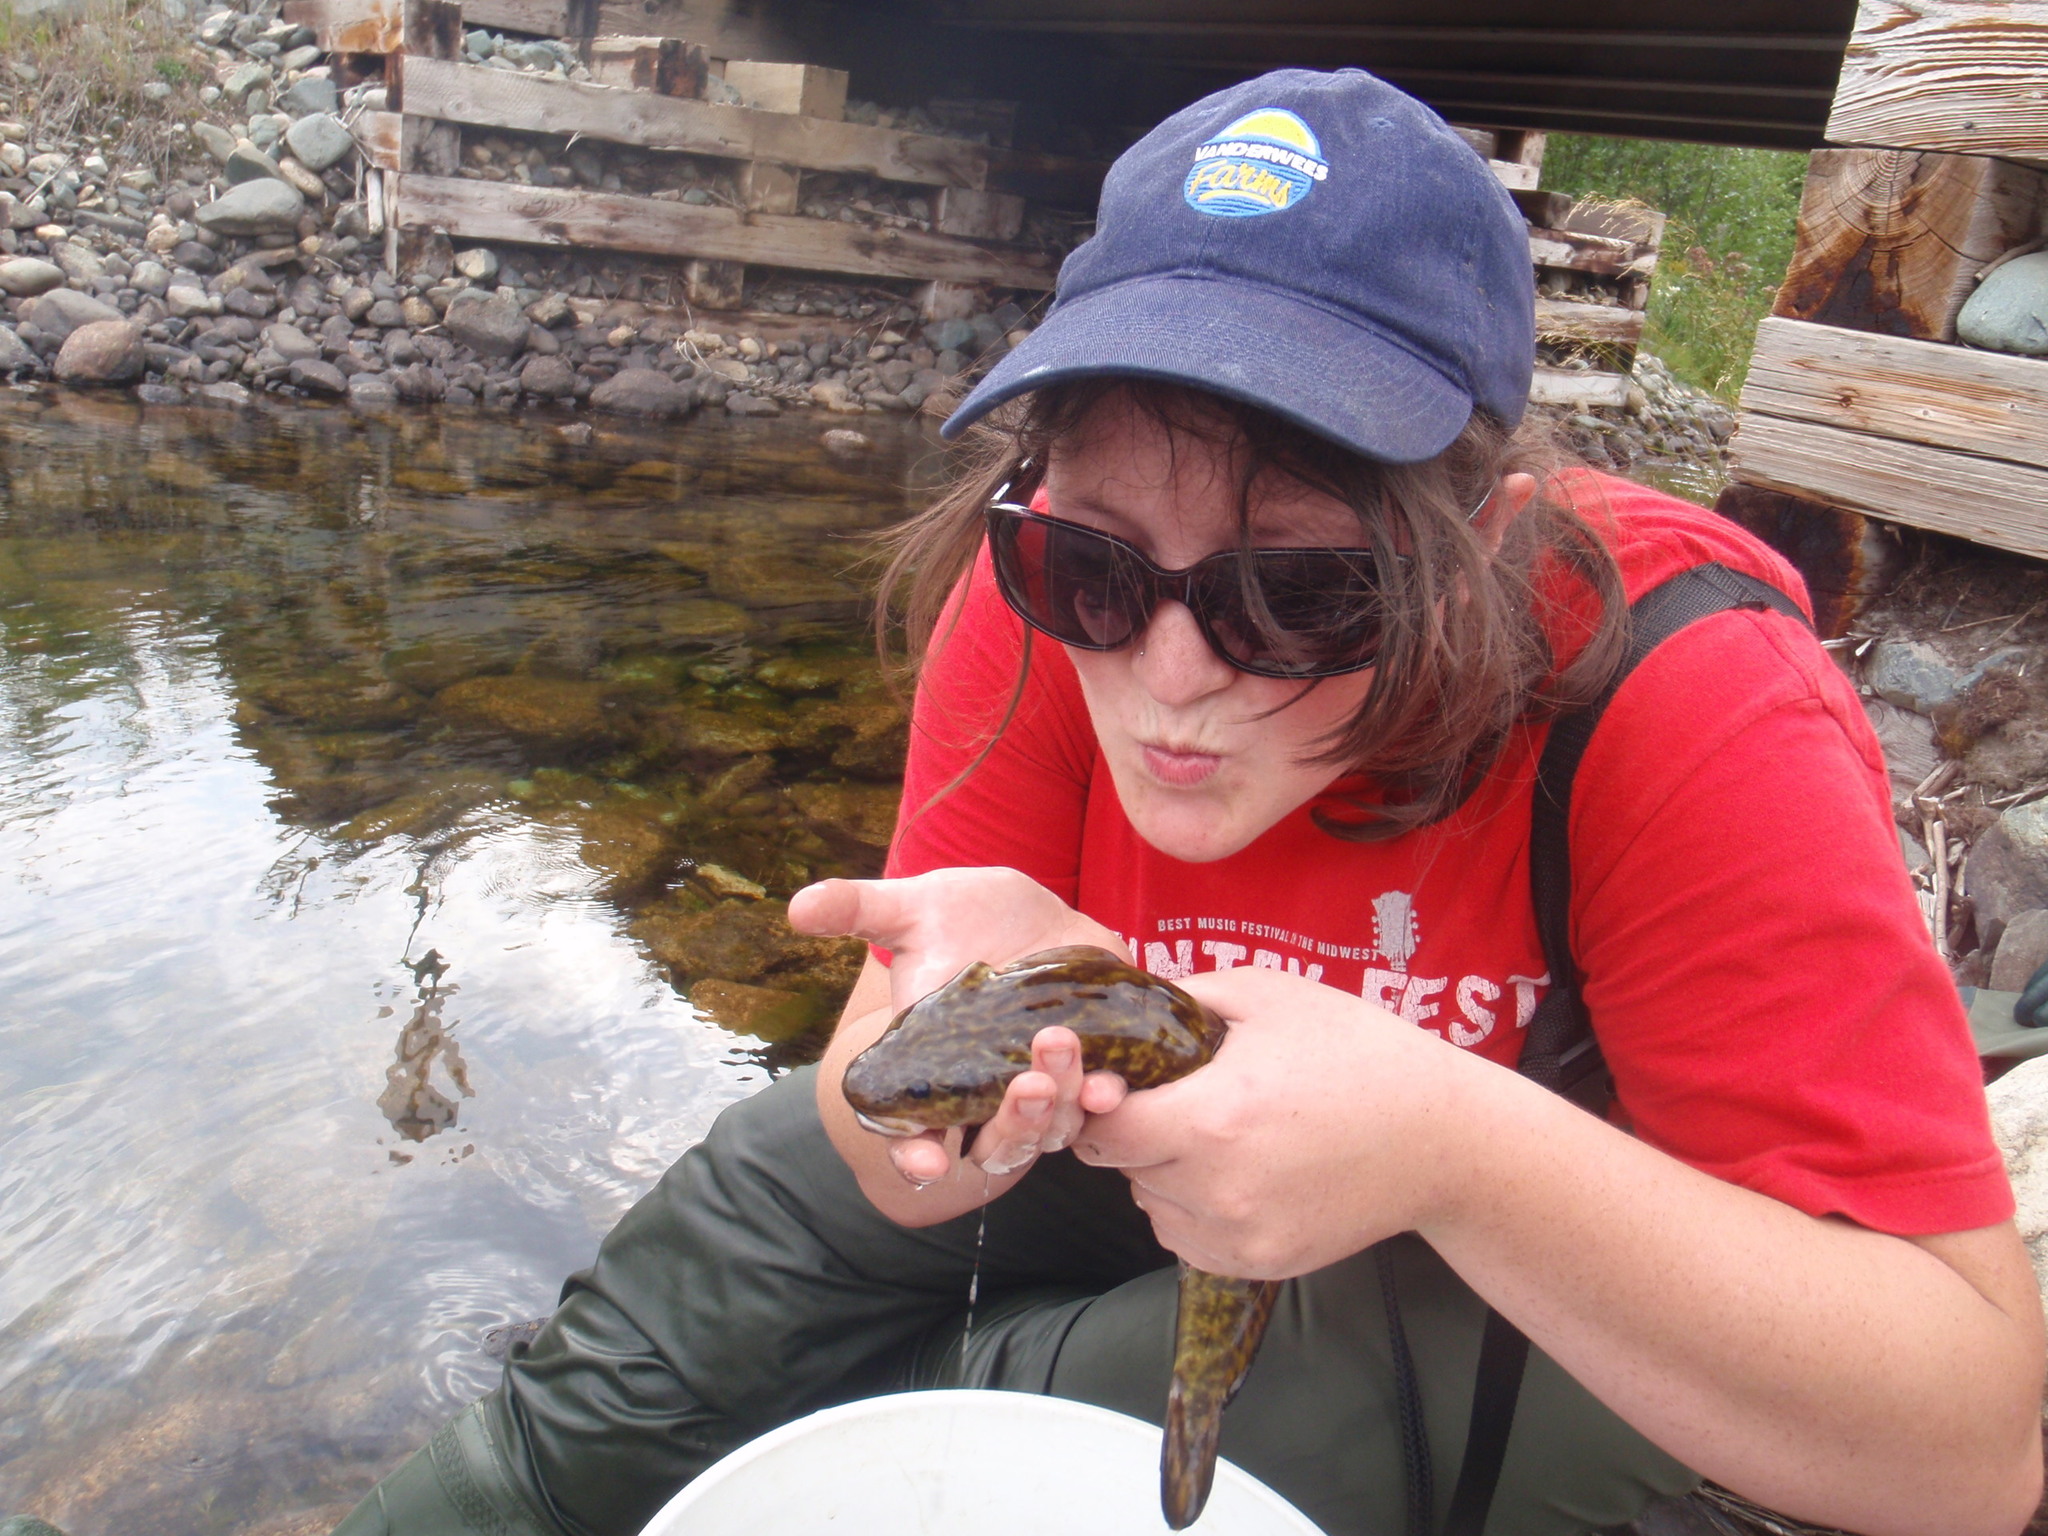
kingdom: Animalia
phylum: Chordata
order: Gadiformes
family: Lotidae
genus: Lota
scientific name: Lota lota
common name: Burbot
